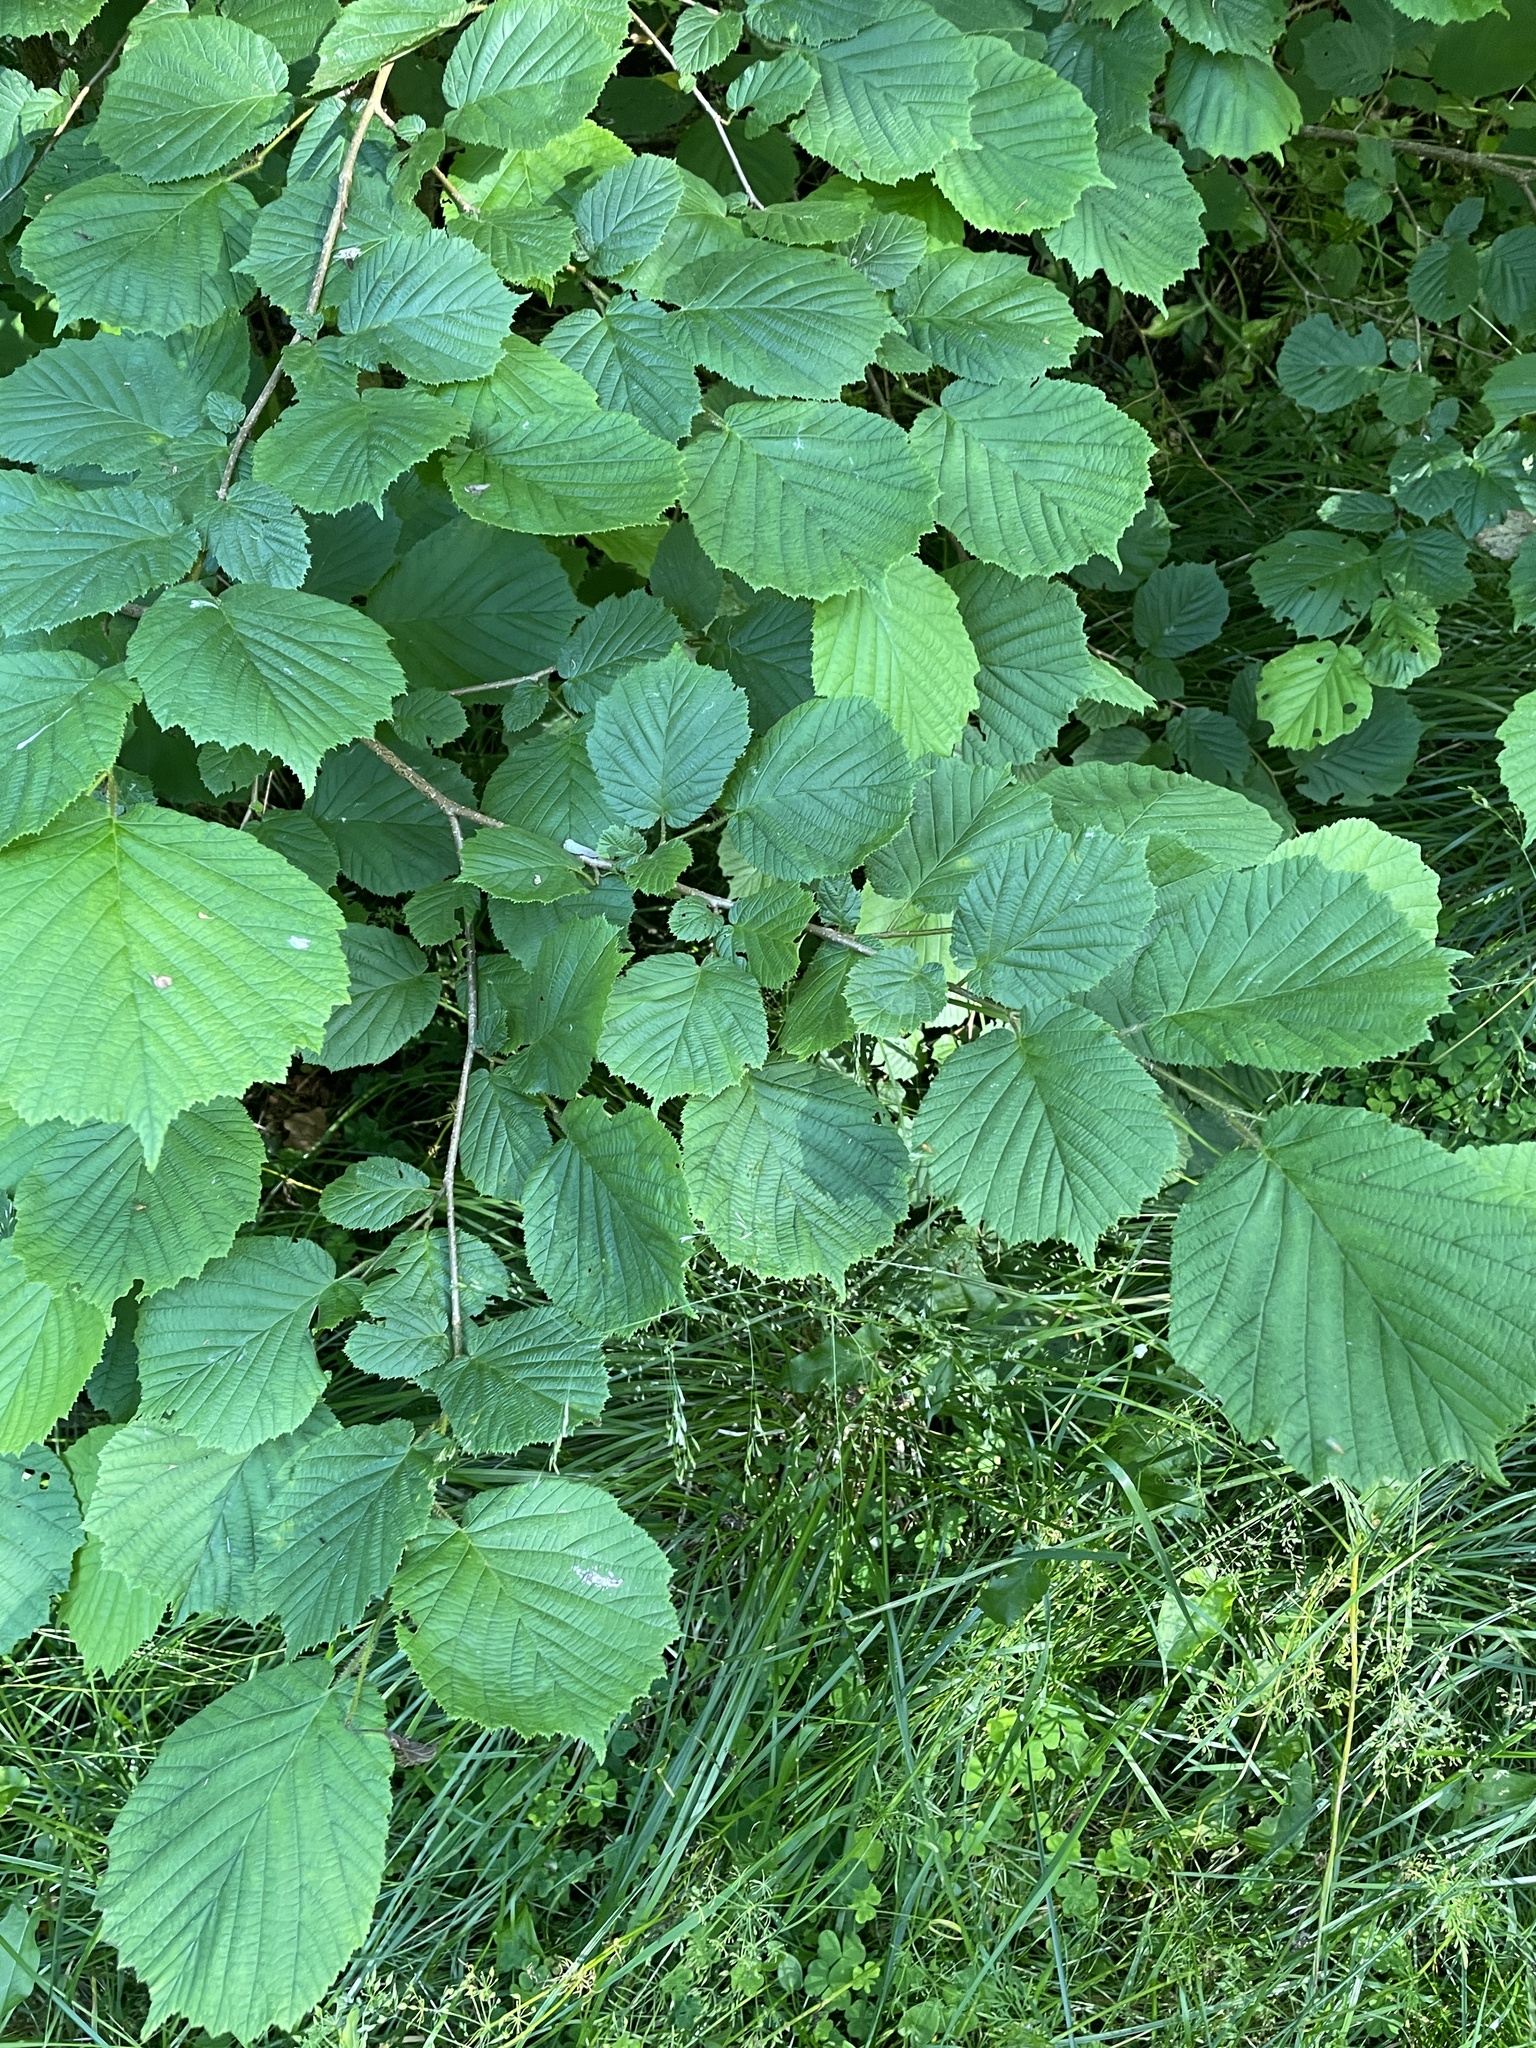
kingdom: Plantae
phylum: Tracheophyta
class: Magnoliopsida
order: Fagales
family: Betulaceae
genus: Corylus
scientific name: Corylus avellana
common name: European hazel
